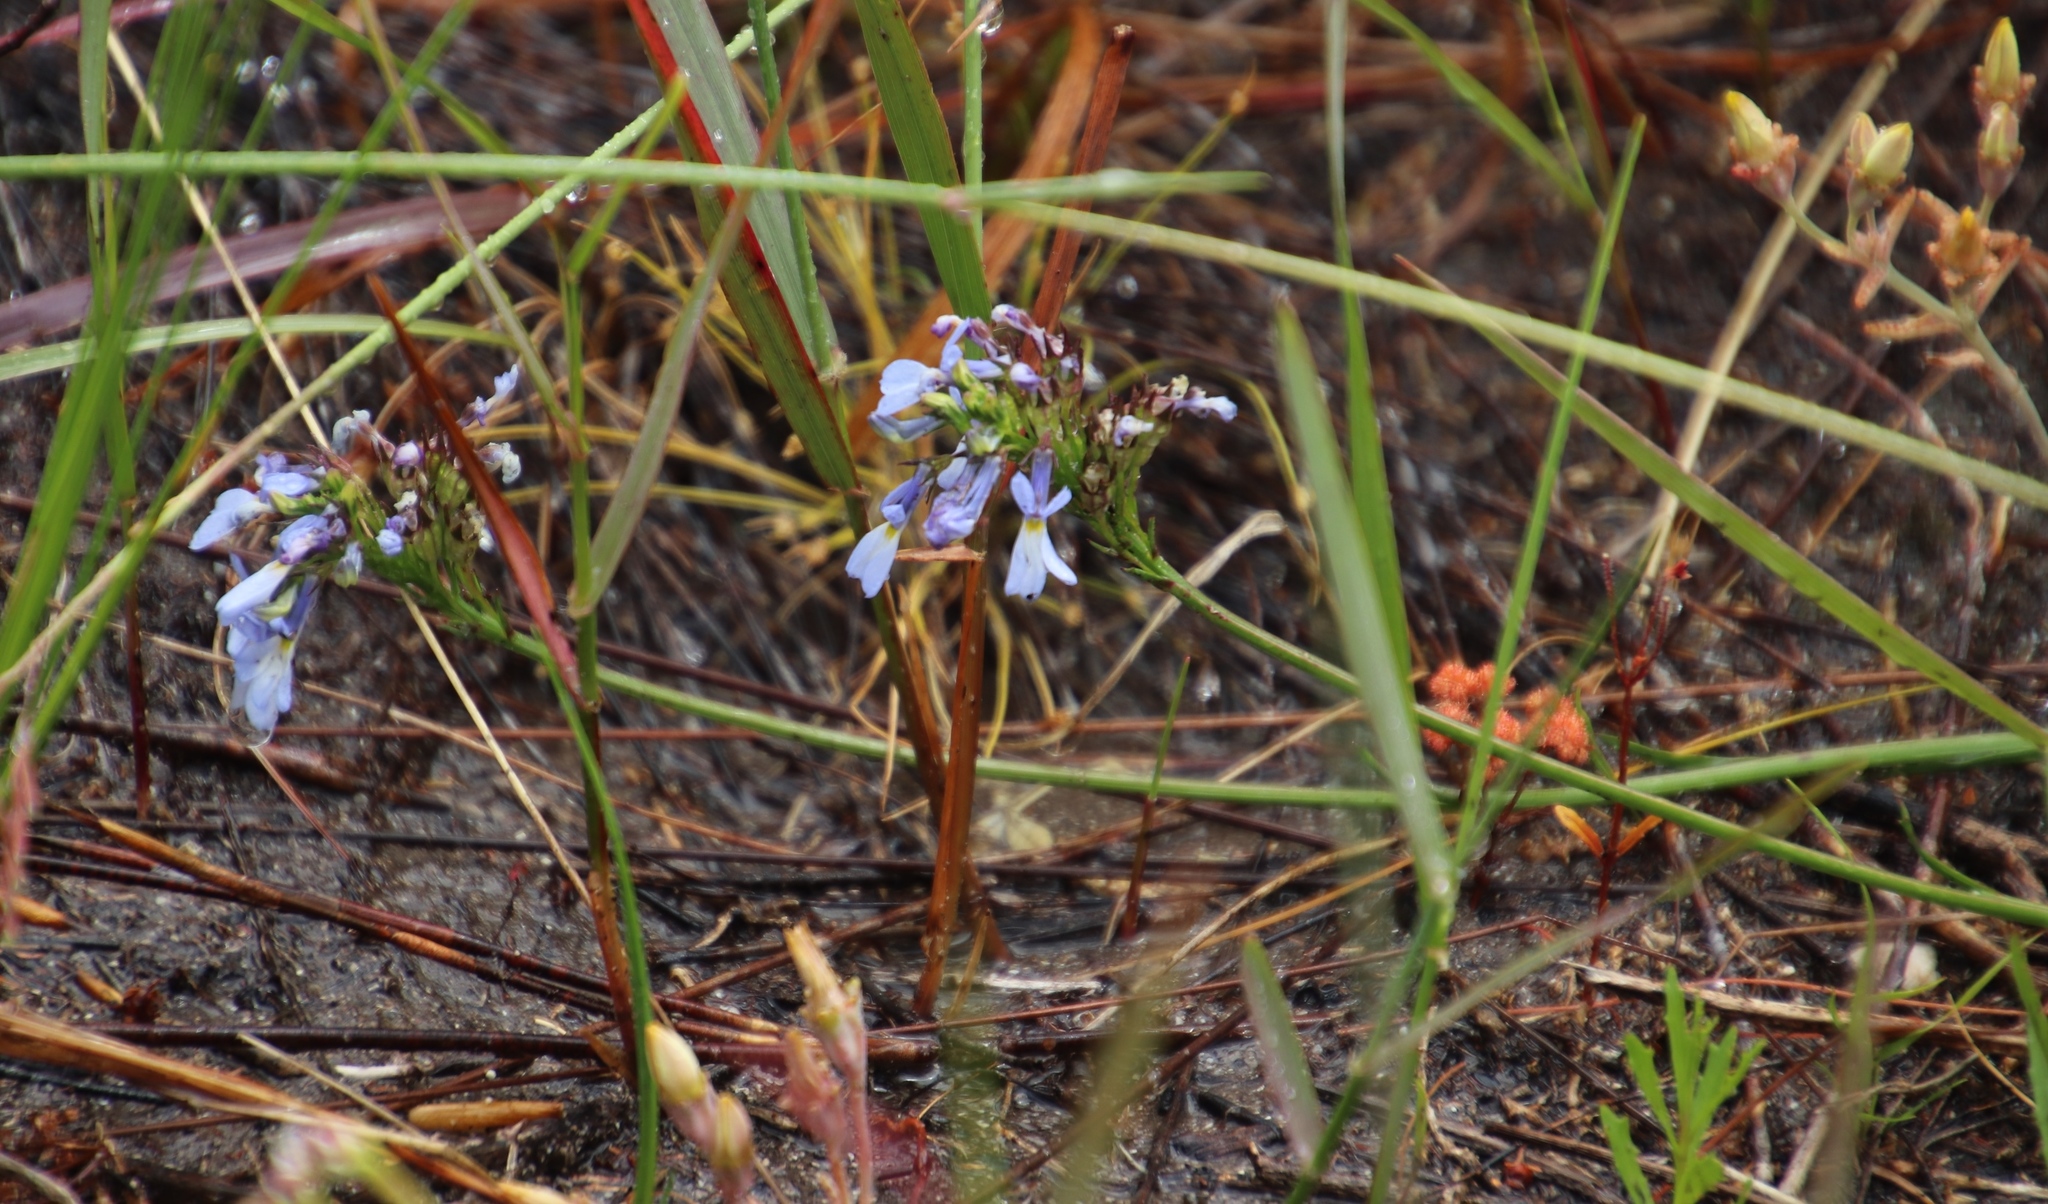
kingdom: Plantae
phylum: Tracheophyta
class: Magnoliopsida
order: Asterales
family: Campanulaceae
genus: Lobelia
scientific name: Lobelia comosa
